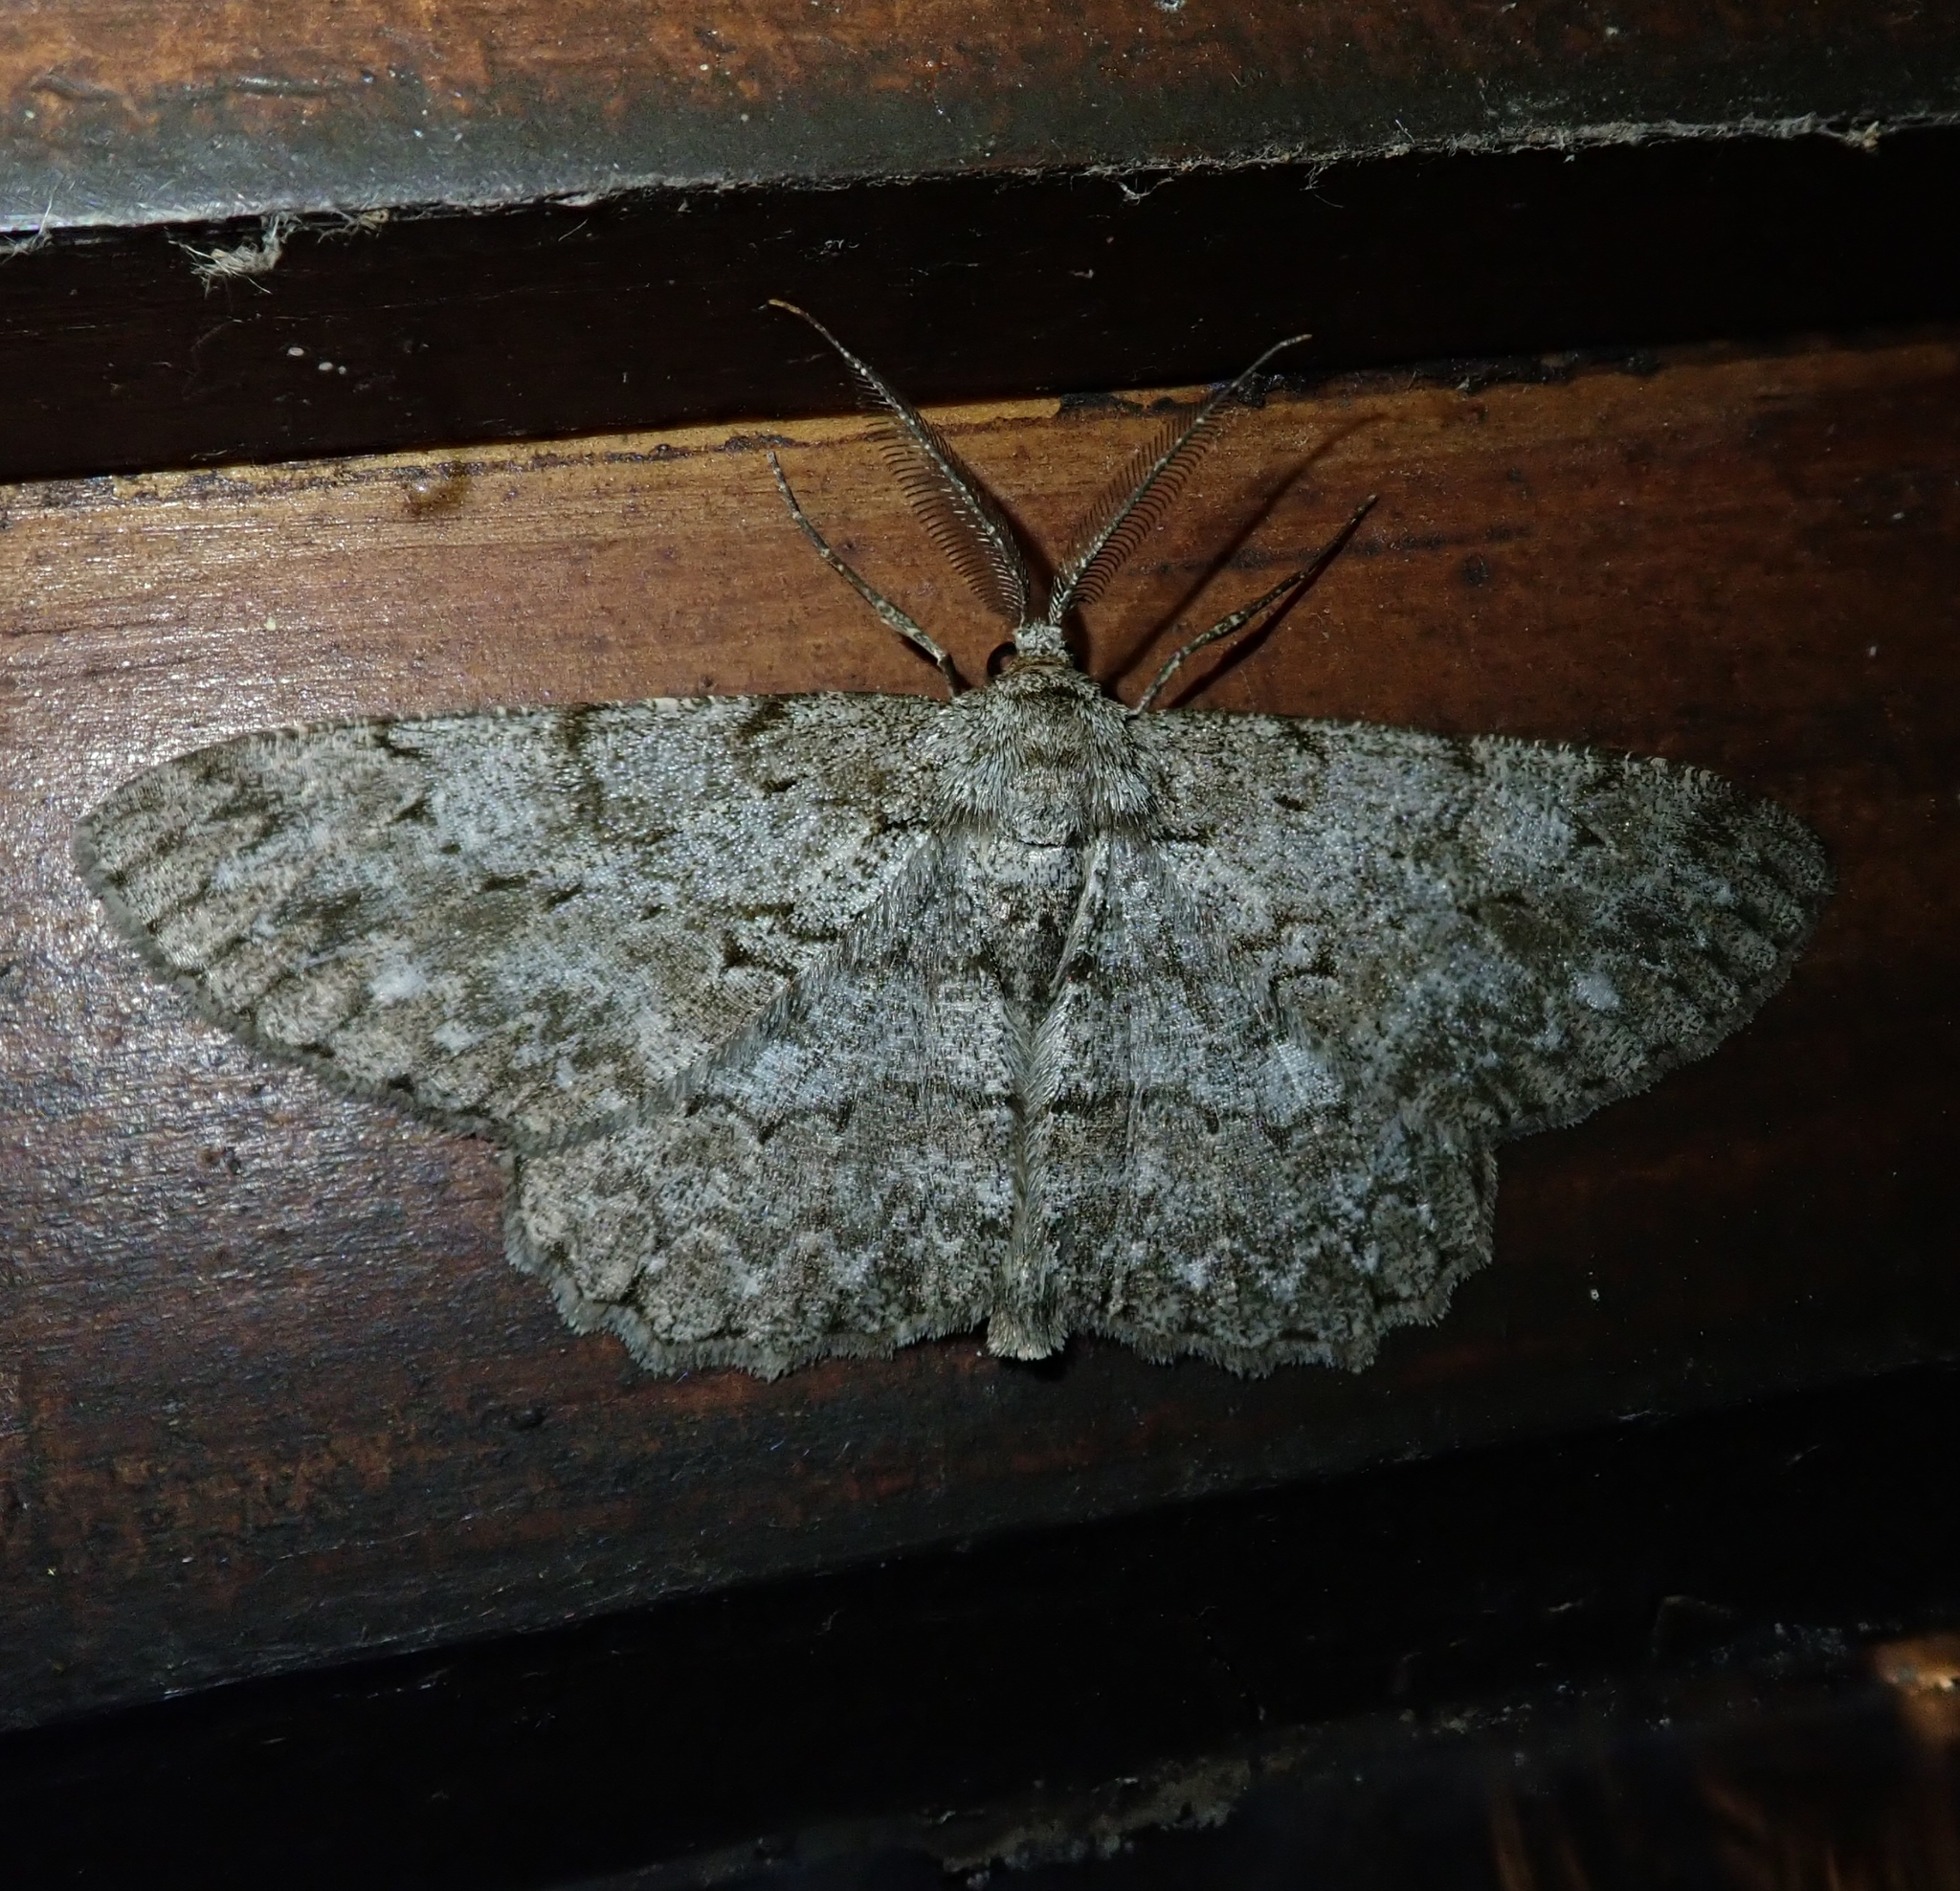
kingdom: Animalia
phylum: Arthropoda
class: Insecta
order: Lepidoptera
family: Geometridae
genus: Hypomecis
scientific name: Hypomecis punctinalis
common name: Pale oak beauty
